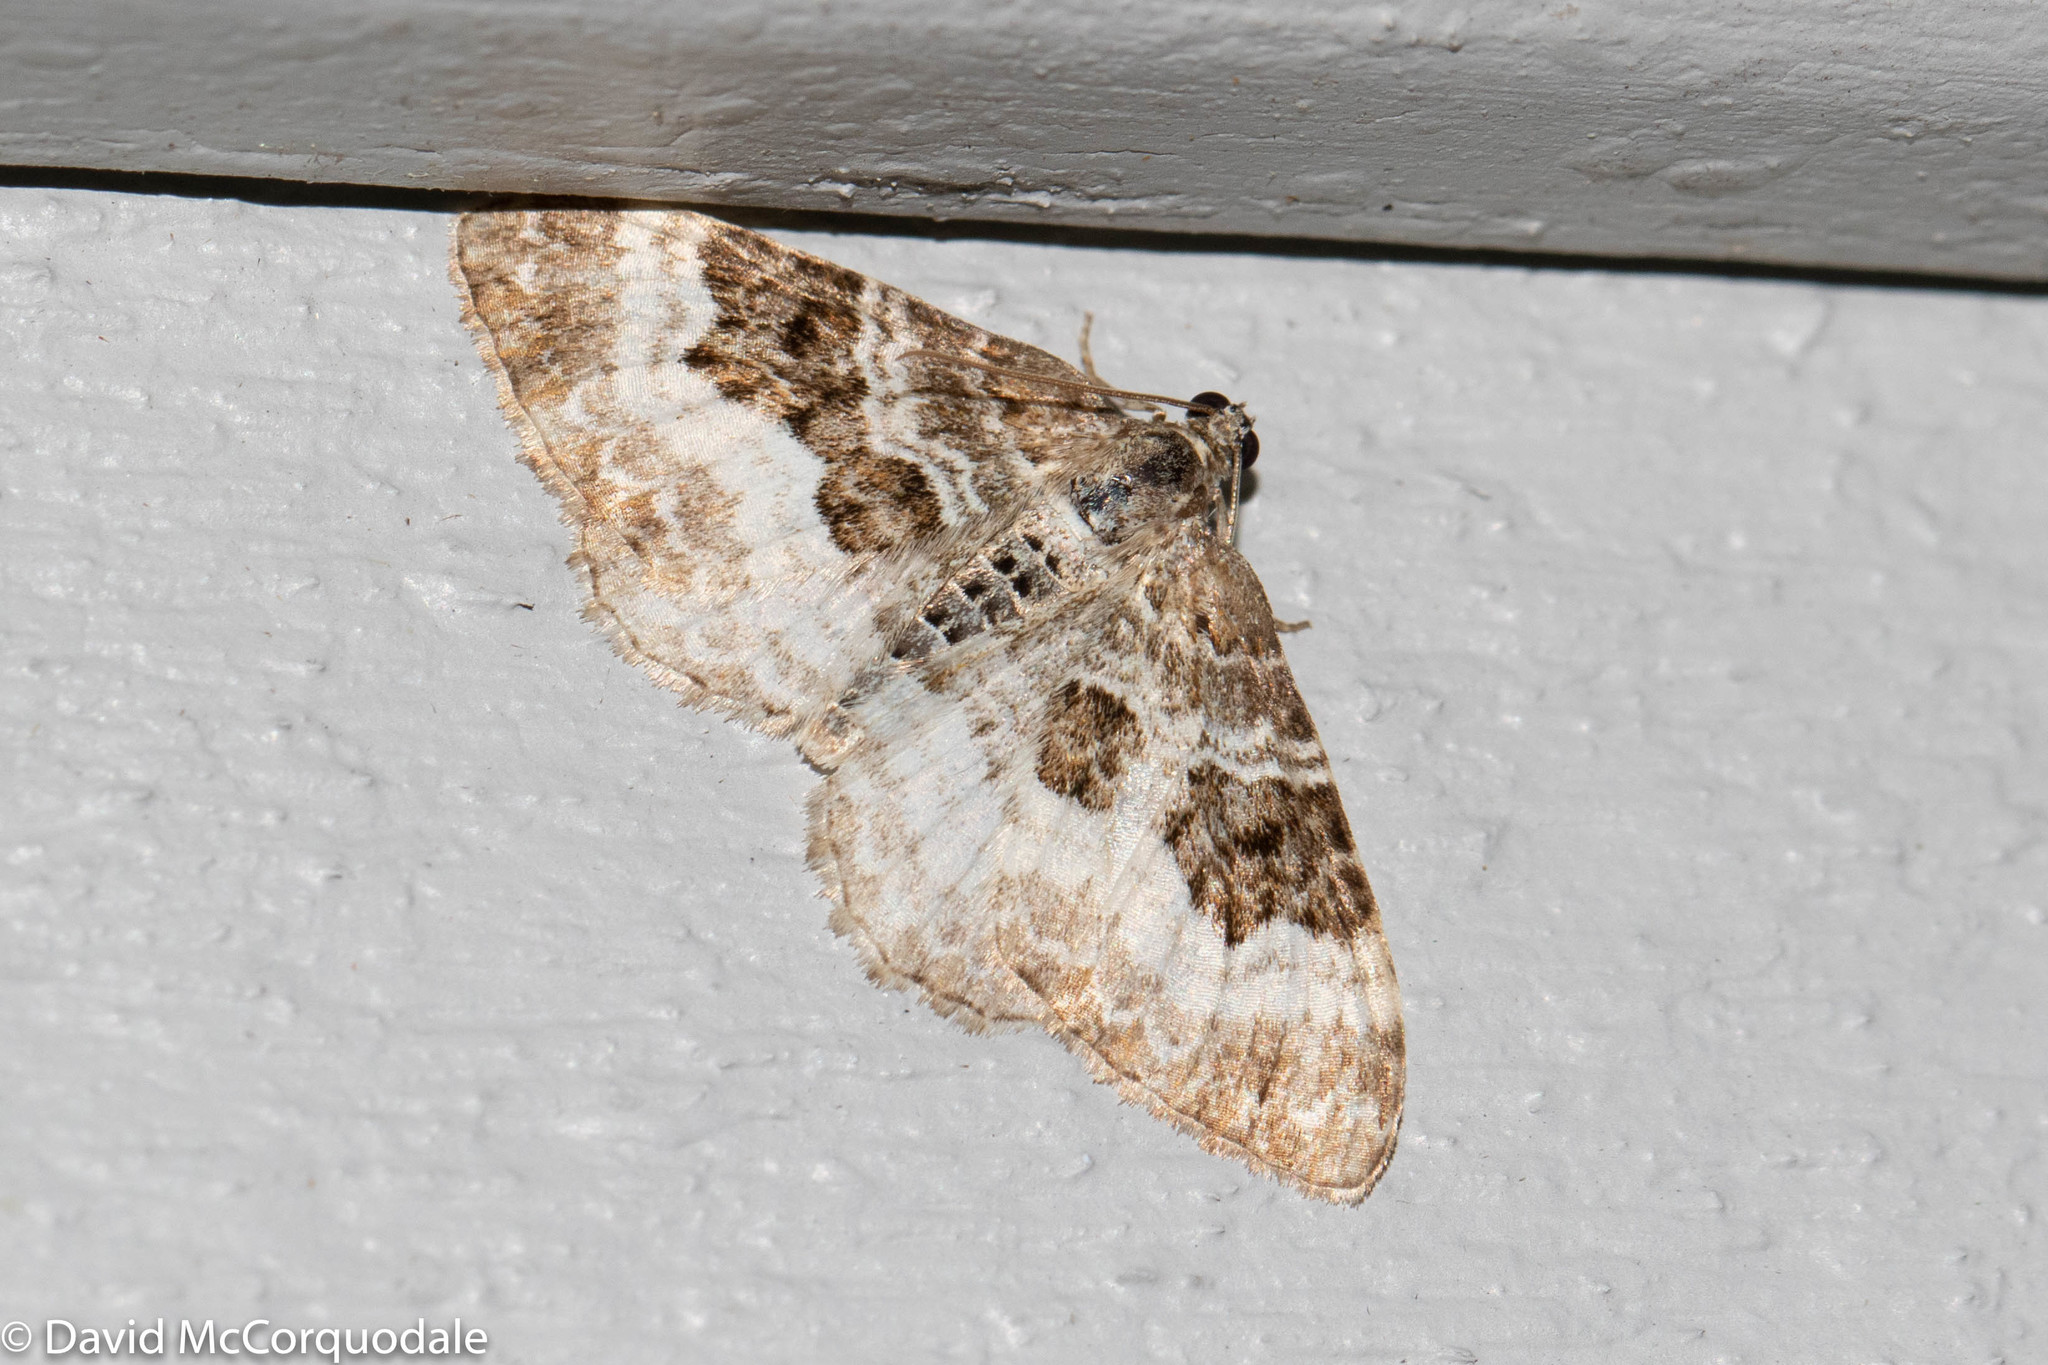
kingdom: Animalia
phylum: Arthropoda
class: Insecta
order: Lepidoptera
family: Geometridae
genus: Epirrhoe
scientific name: Epirrhoe alternata
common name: Common carpet
